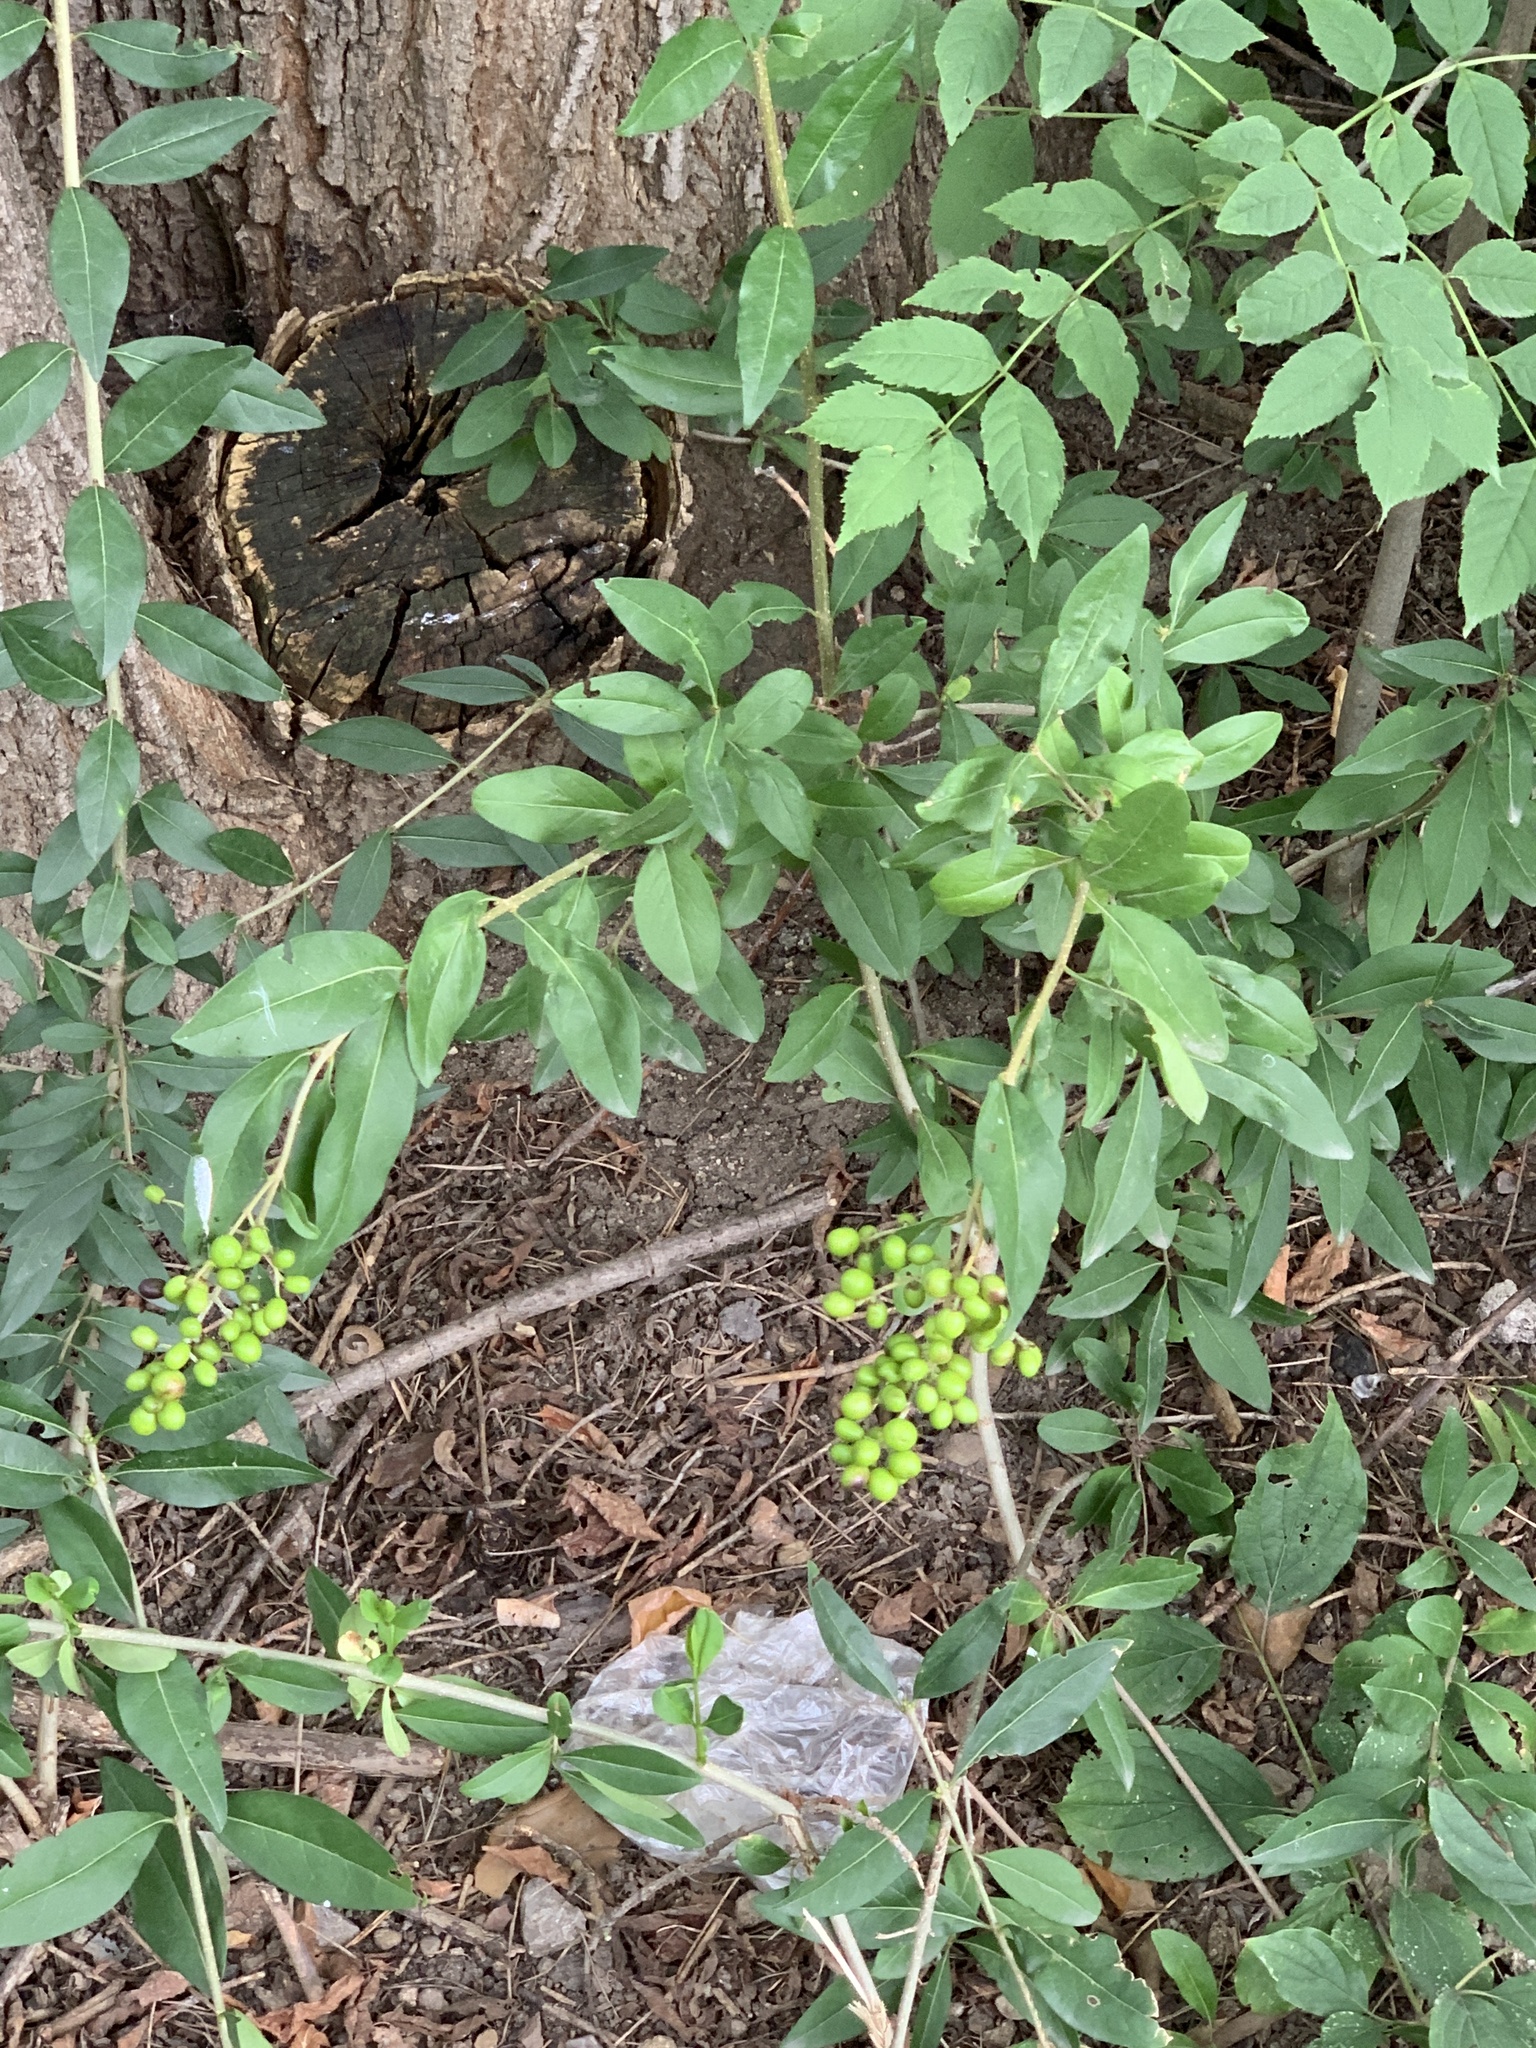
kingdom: Plantae
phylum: Tracheophyta
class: Magnoliopsida
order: Lamiales
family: Oleaceae
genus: Ligustrum
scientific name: Ligustrum vulgare
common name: Wild privet
